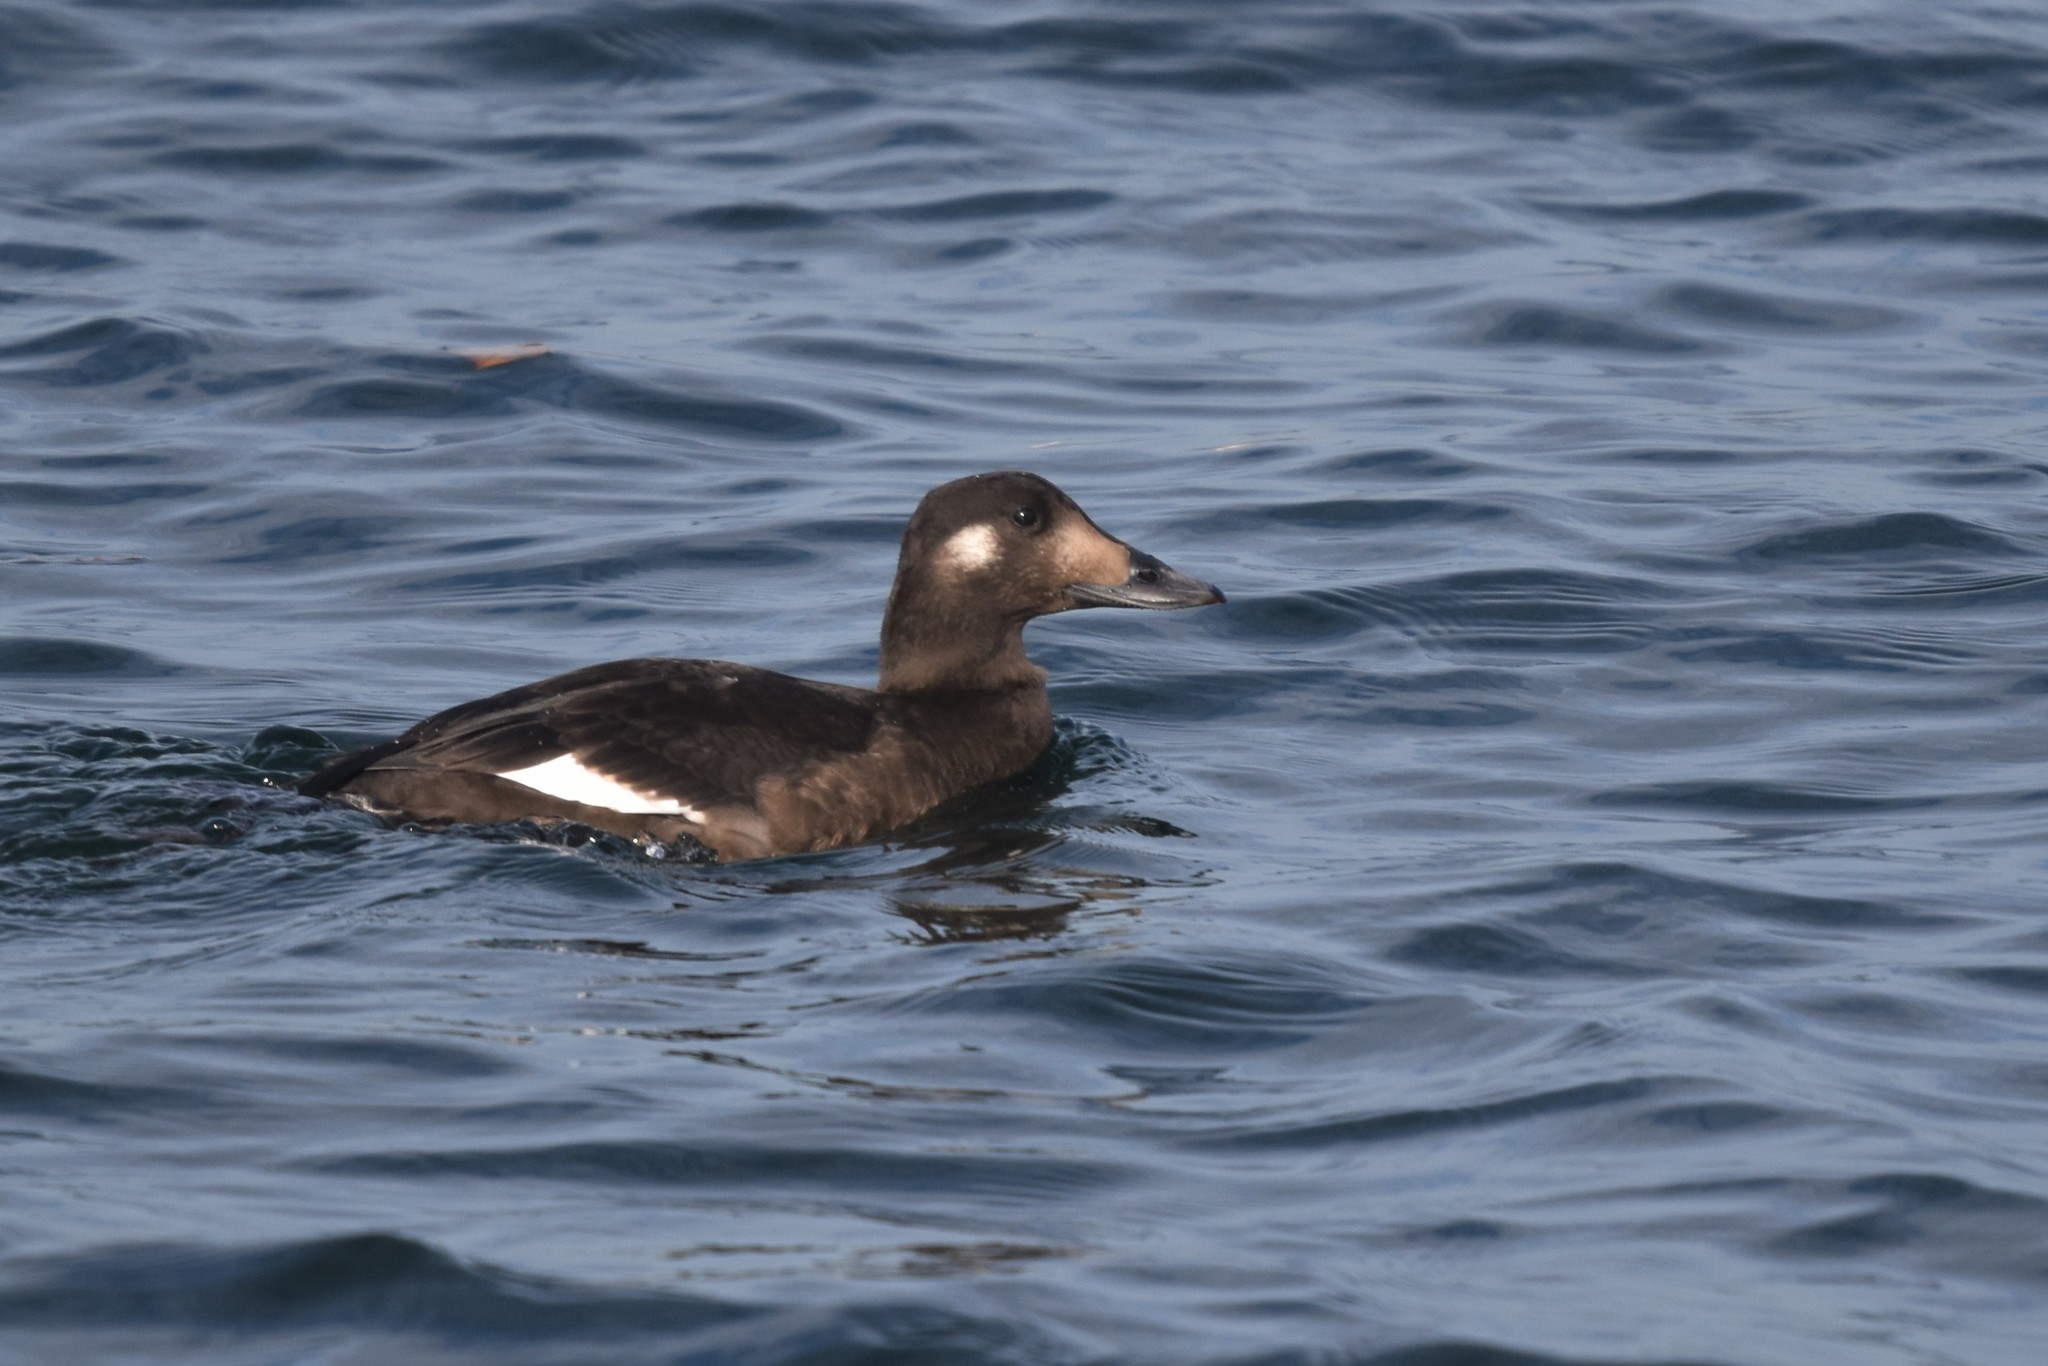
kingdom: Animalia
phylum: Chordata
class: Aves
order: Anseriformes
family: Anatidae
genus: Melanitta
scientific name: Melanitta deglandi
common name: White-winged scoter
